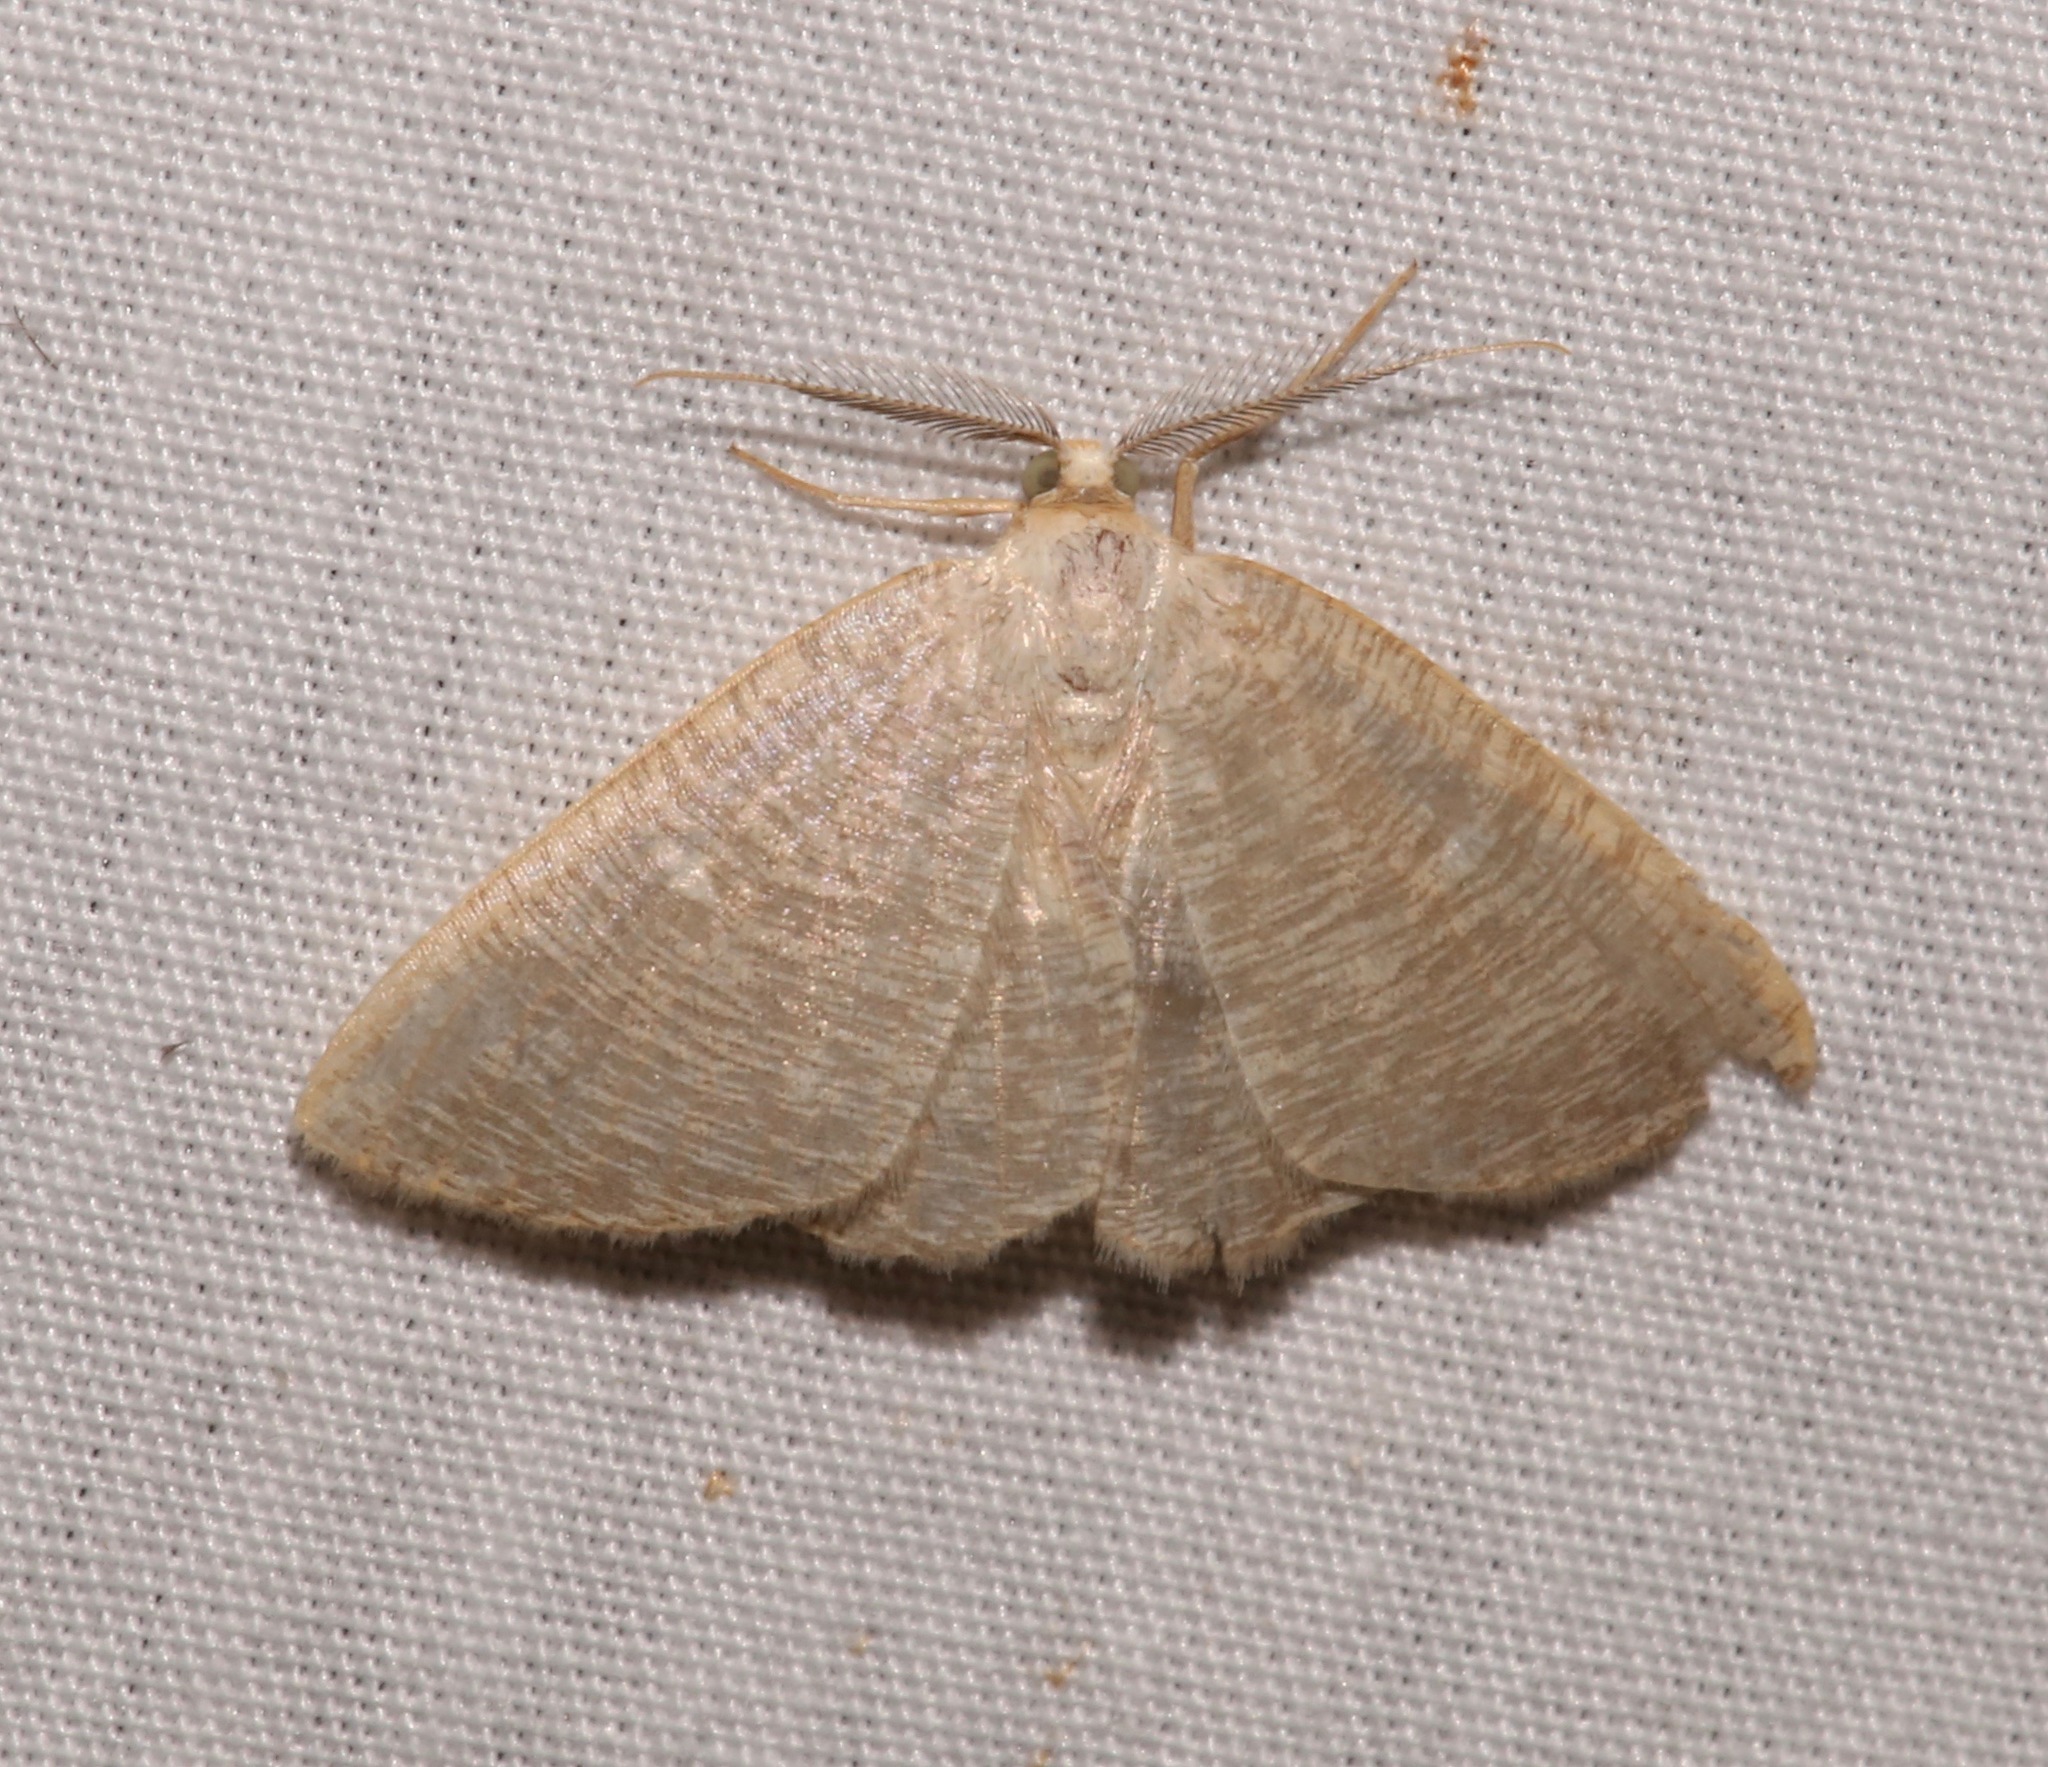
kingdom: Animalia
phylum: Arthropoda
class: Insecta
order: Lepidoptera
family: Geometridae
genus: Pterospoda
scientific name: Pterospoda kunzei
